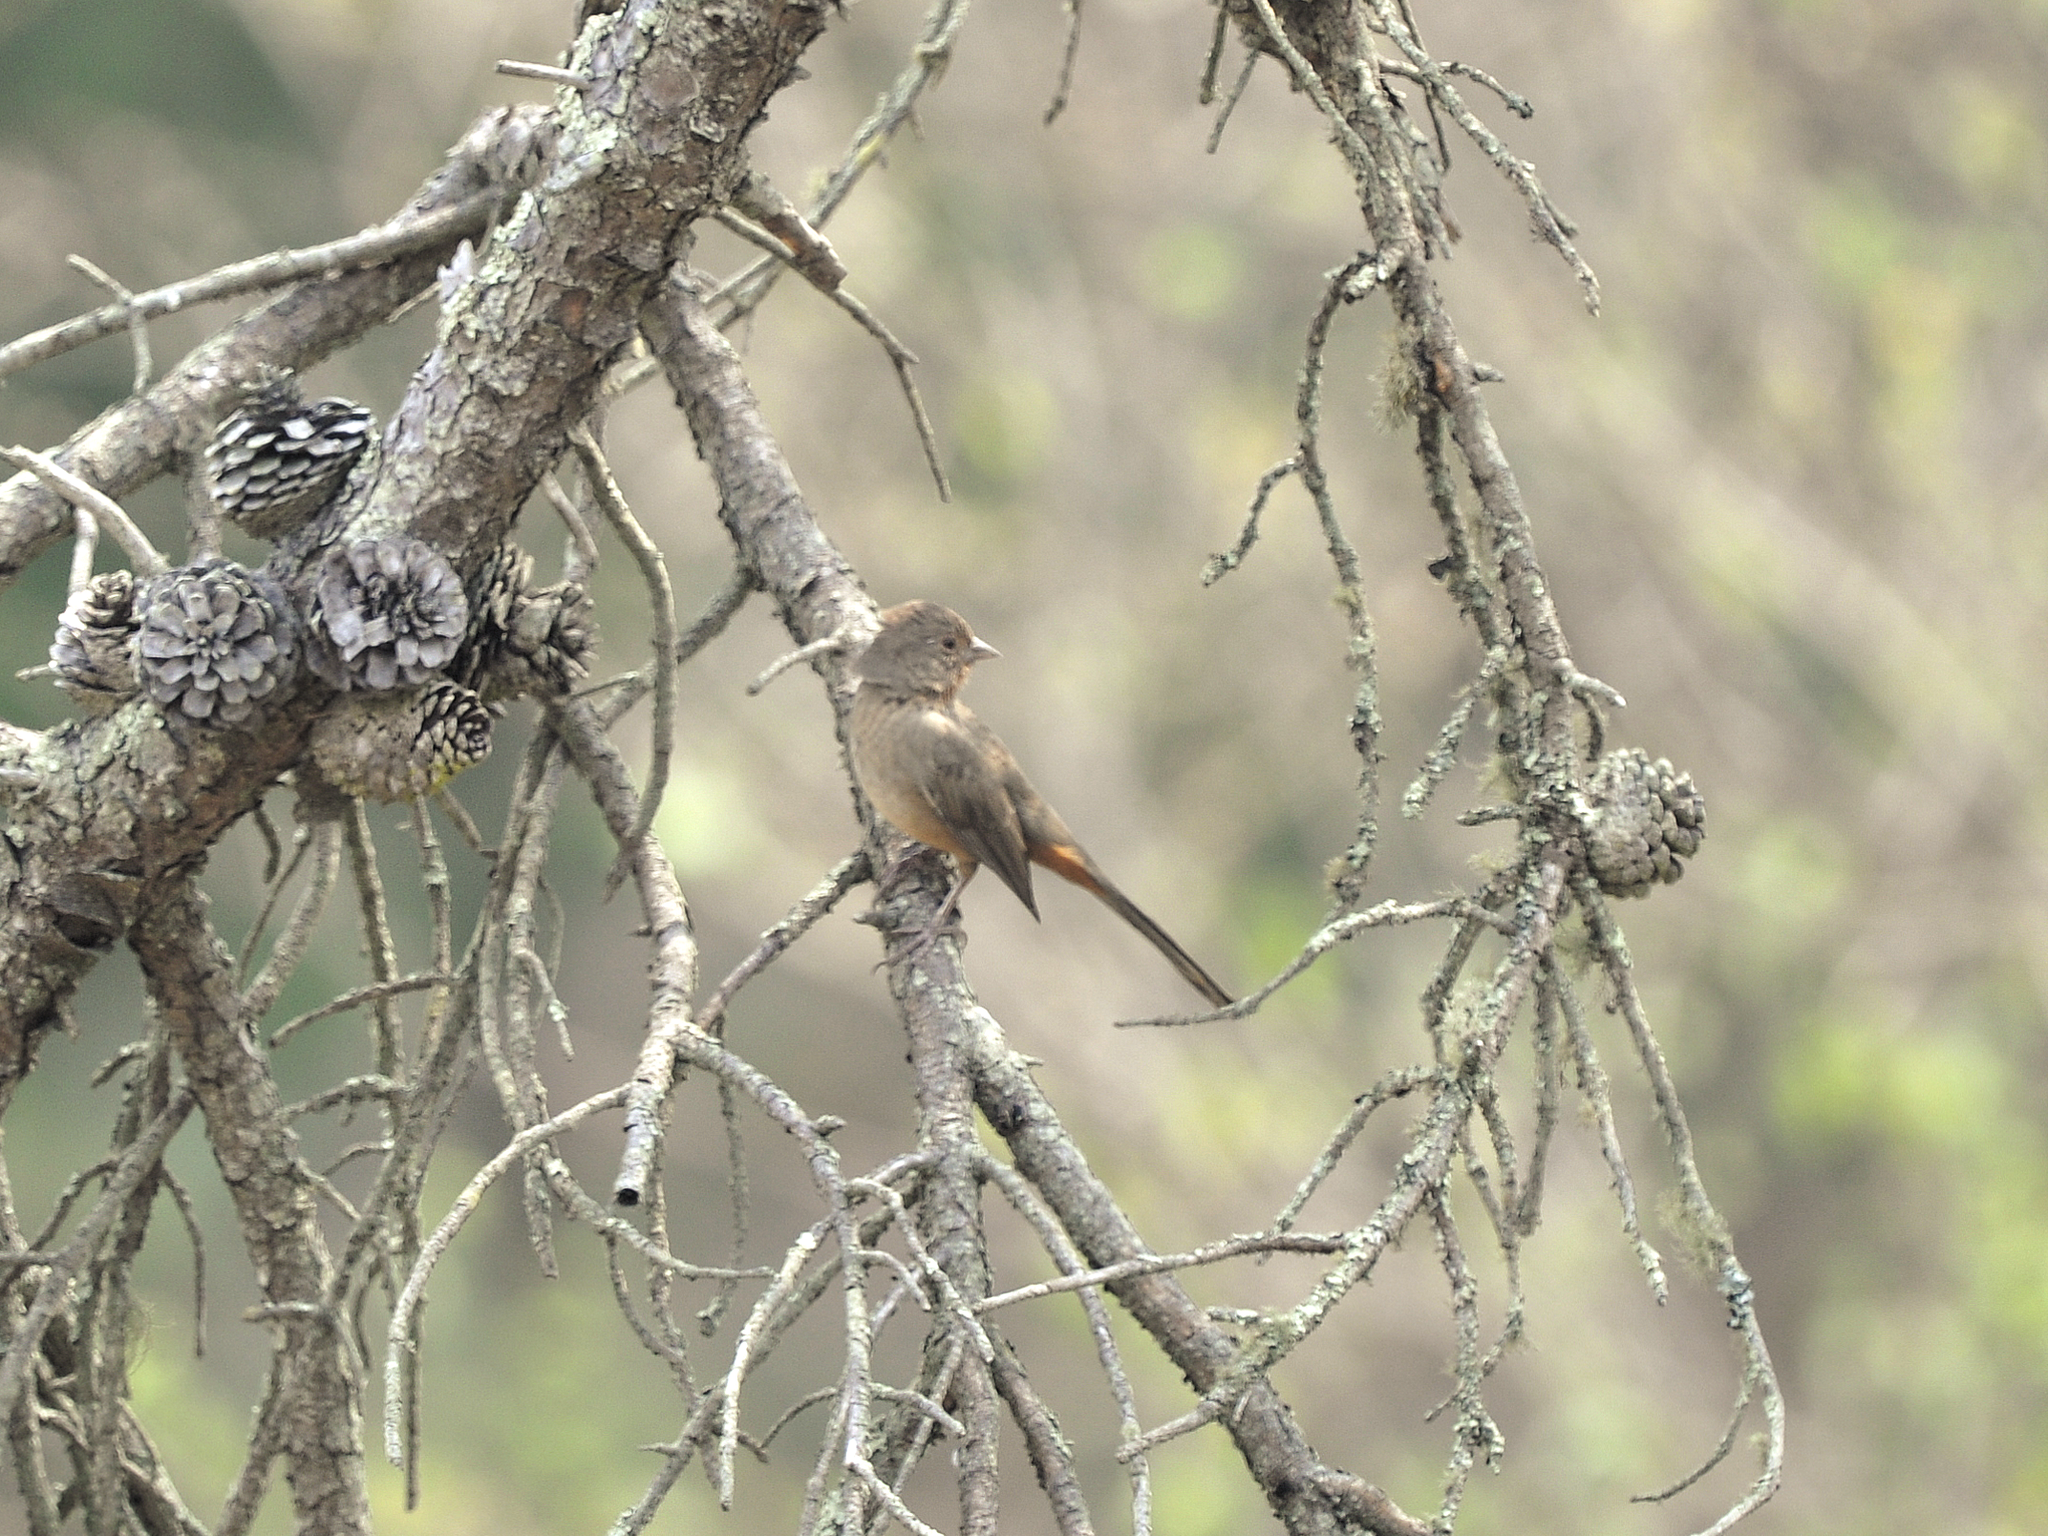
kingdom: Animalia
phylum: Chordata
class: Aves
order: Passeriformes
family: Passerellidae
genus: Melozone
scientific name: Melozone crissalis
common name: California towhee
